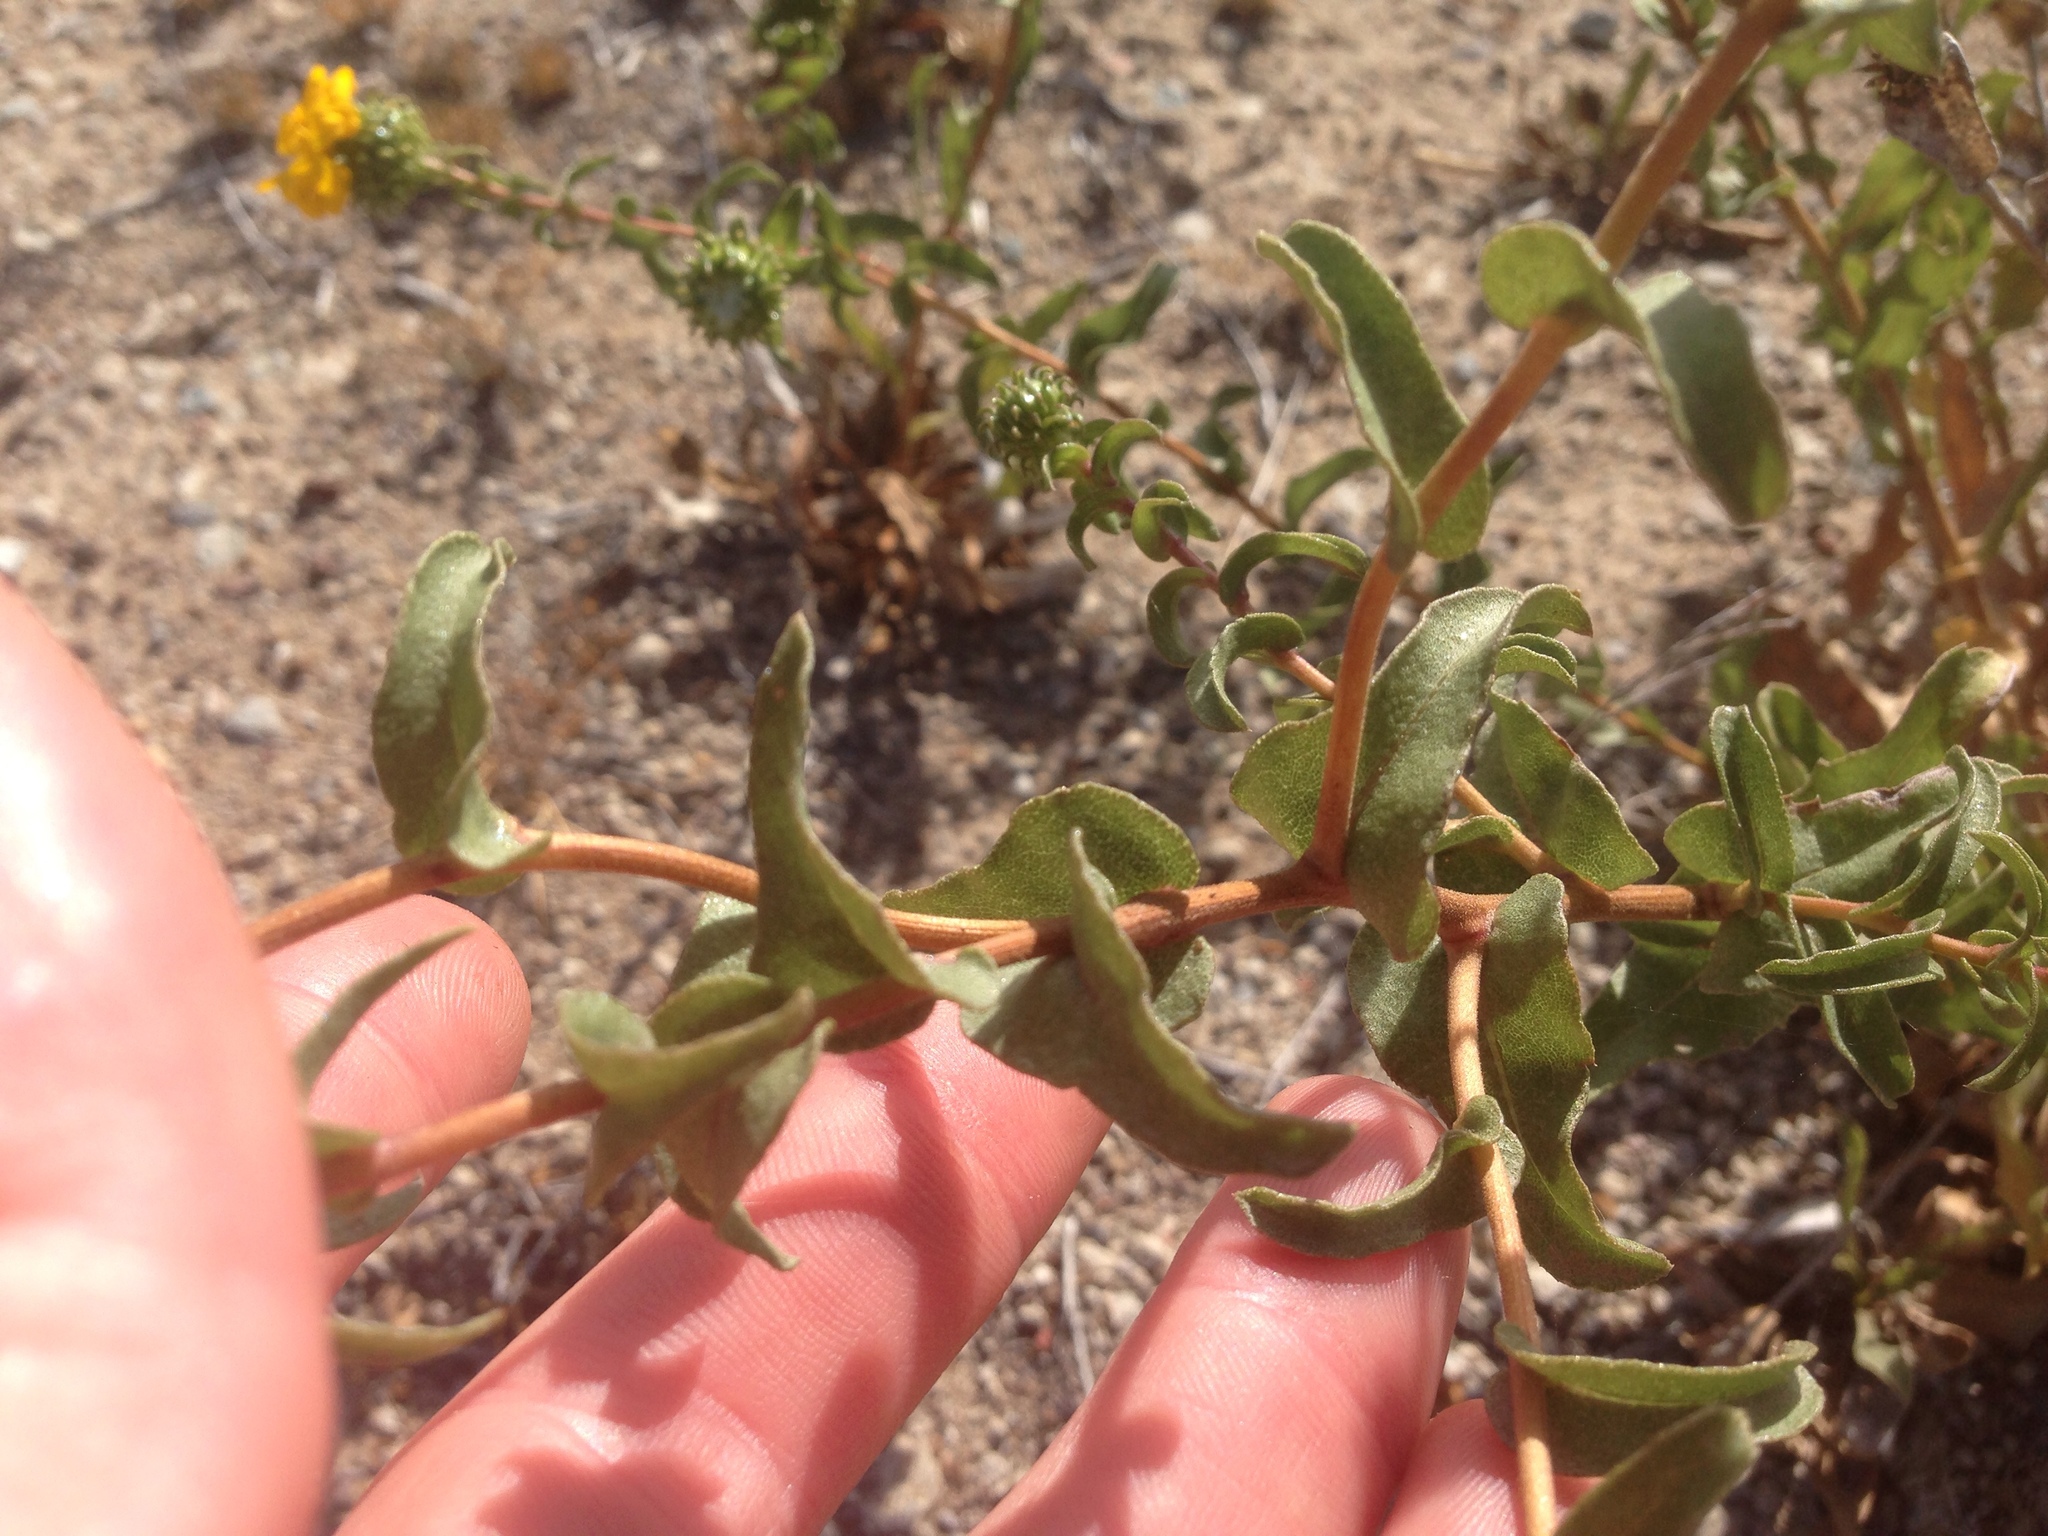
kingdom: Plantae
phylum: Tracheophyta
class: Magnoliopsida
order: Asterales
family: Asteraceae
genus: Grindelia
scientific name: Grindelia hirsutula
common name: Hairy gumweed
